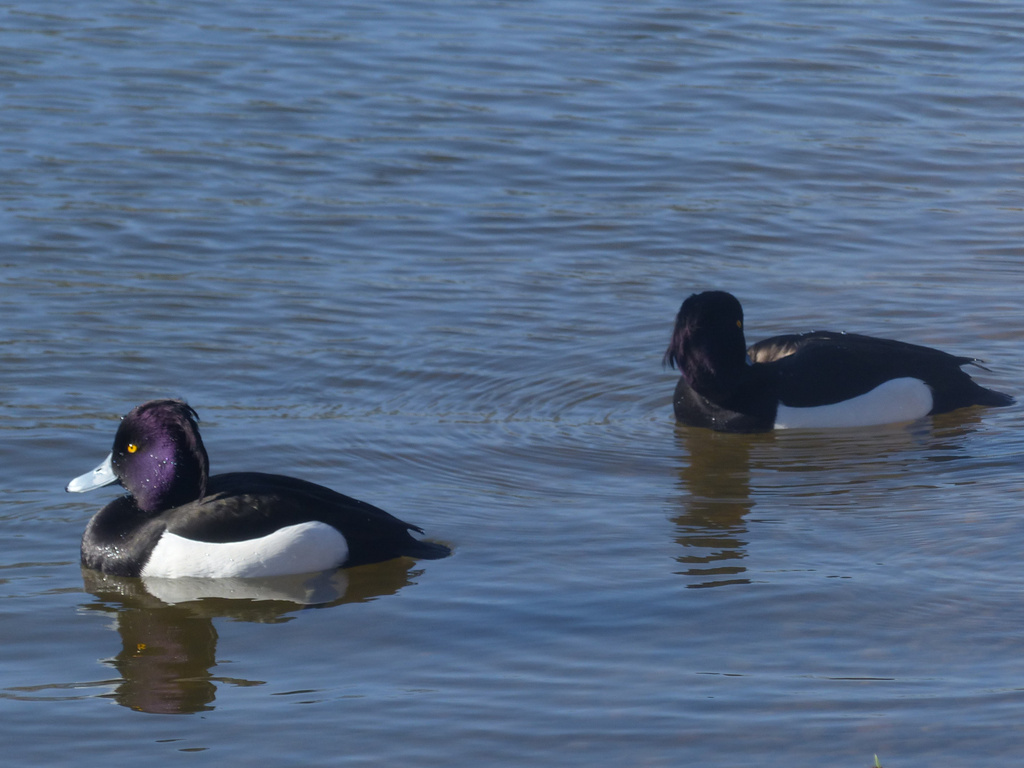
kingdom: Animalia
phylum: Chordata
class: Aves
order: Anseriformes
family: Anatidae
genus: Aythya
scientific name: Aythya fuligula
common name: Tufted duck
